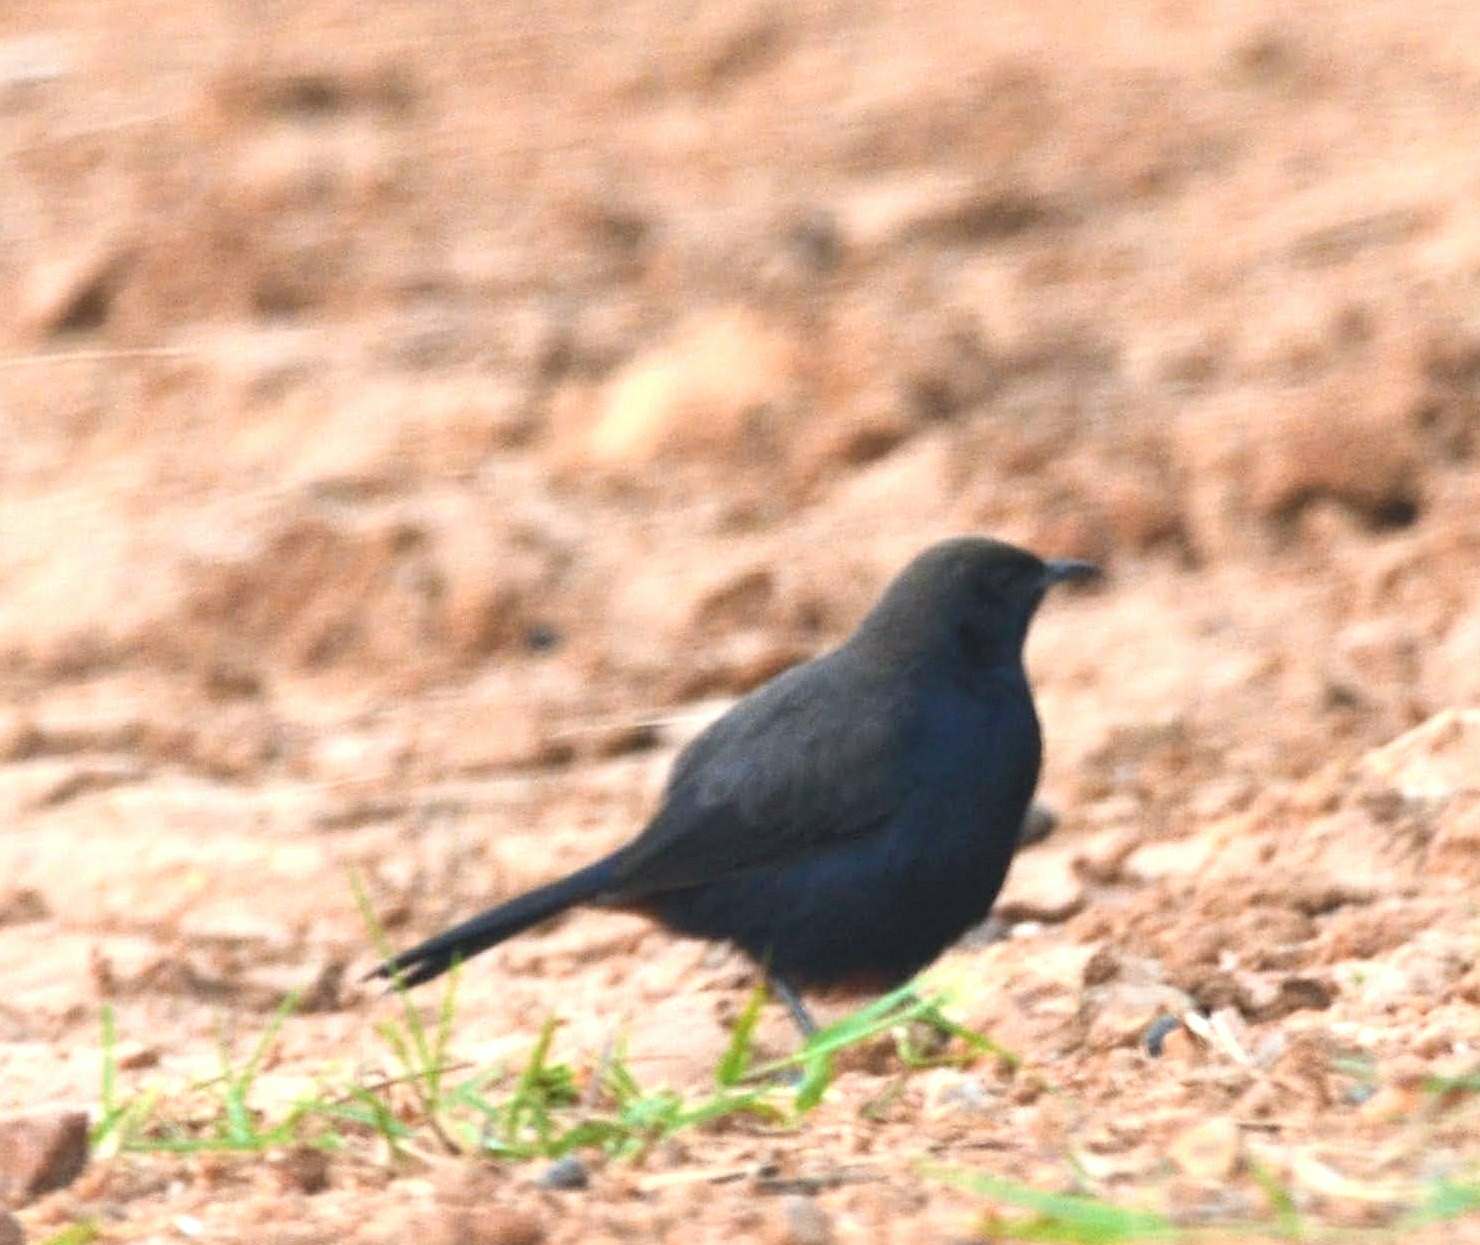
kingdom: Animalia
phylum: Chordata
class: Aves
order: Passeriformes
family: Muscicapidae
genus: Saxicoloides
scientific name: Saxicoloides fulicatus
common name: Indian robin
